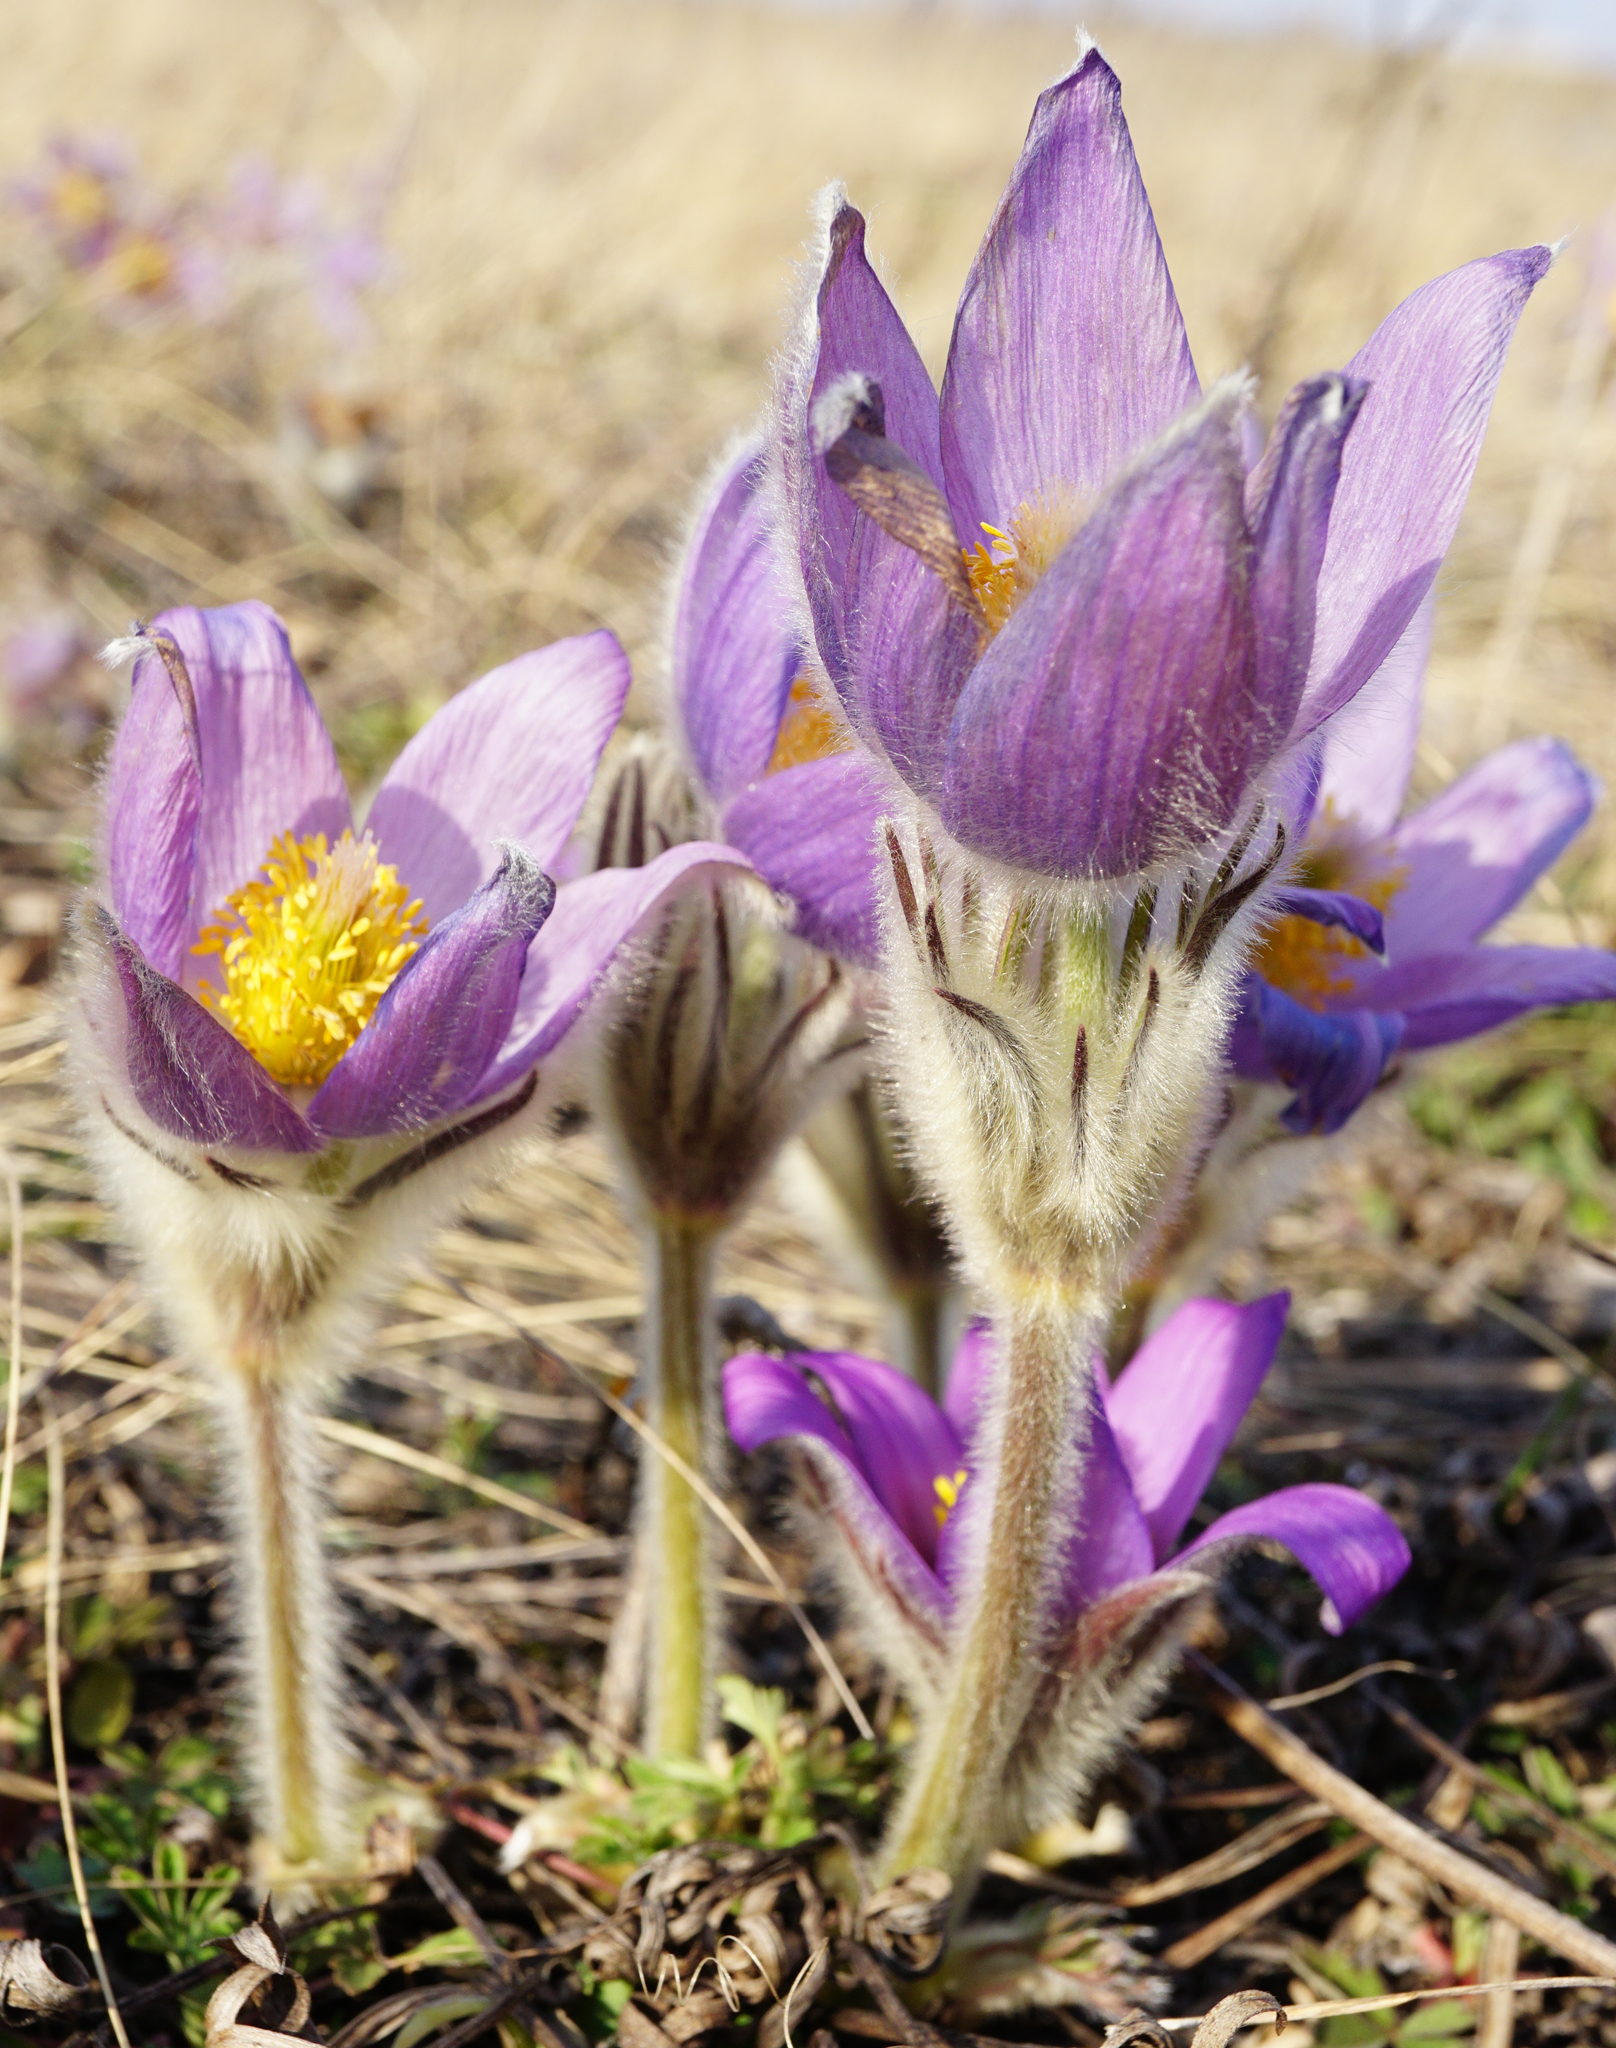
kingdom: Plantae
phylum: Tracheophyta
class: Magnoliopsida
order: Ranunculales
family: Ranunculaceae
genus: Pulsatilla
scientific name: Pulsatilla grandis
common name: Greater pasque flower
